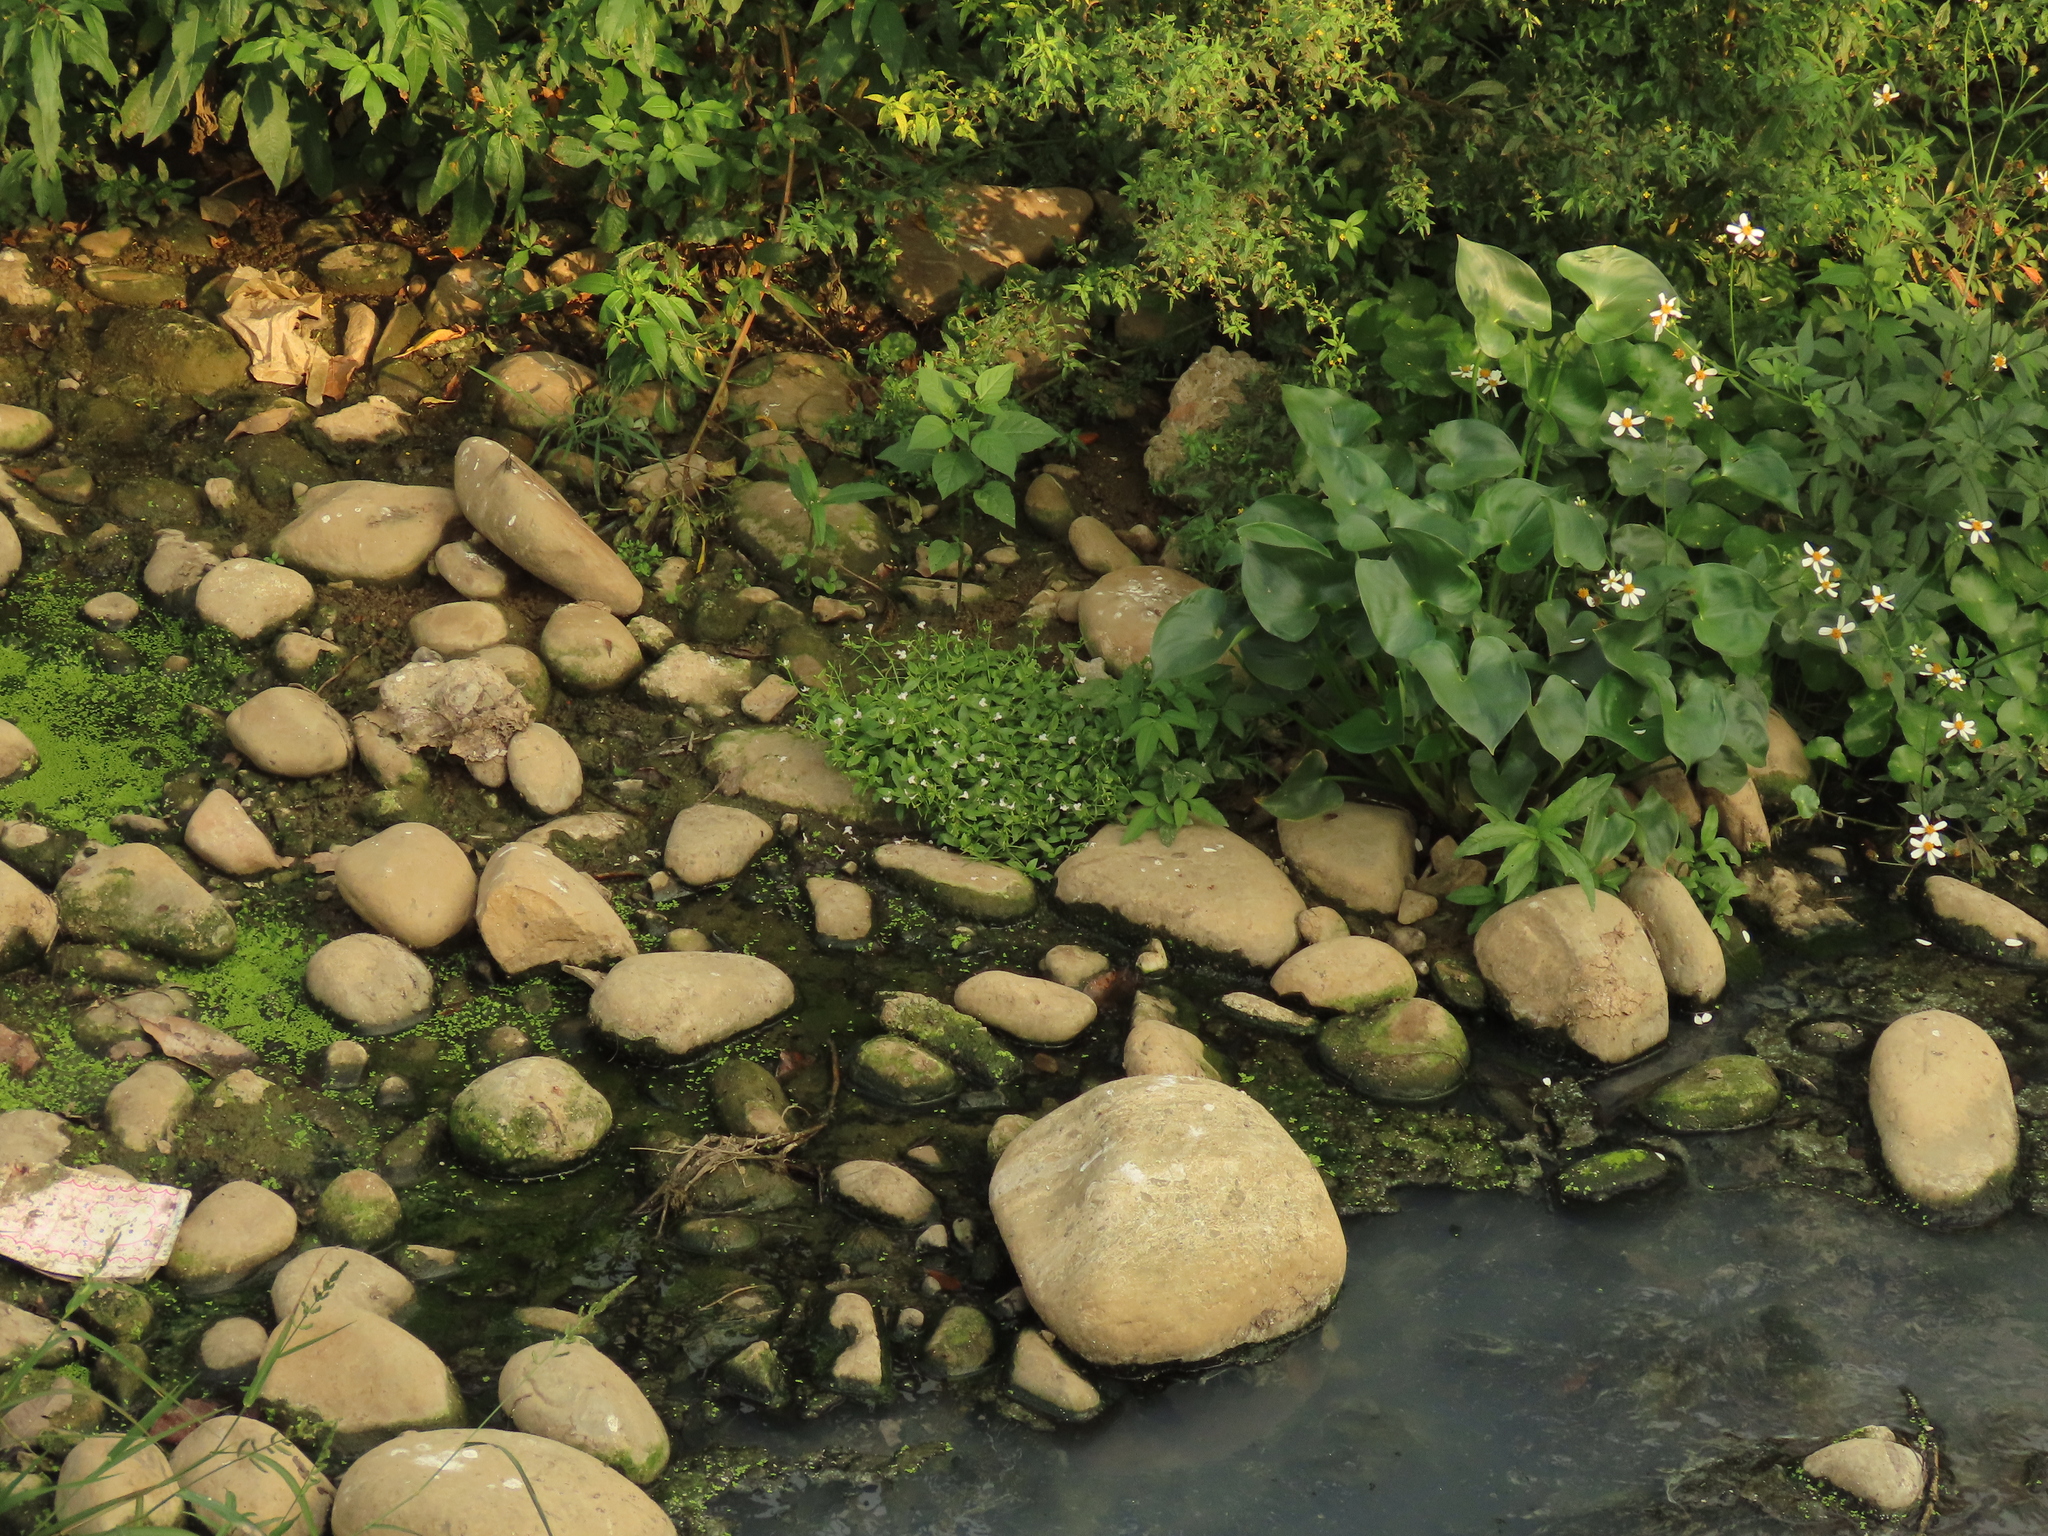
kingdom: Plantae
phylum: Tracheophyta
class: Magnoliopsida
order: Lamiales
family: Linderniaceae
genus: Bonnaya
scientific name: Bonnaya antipoda
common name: Sparrow false pimpernel
